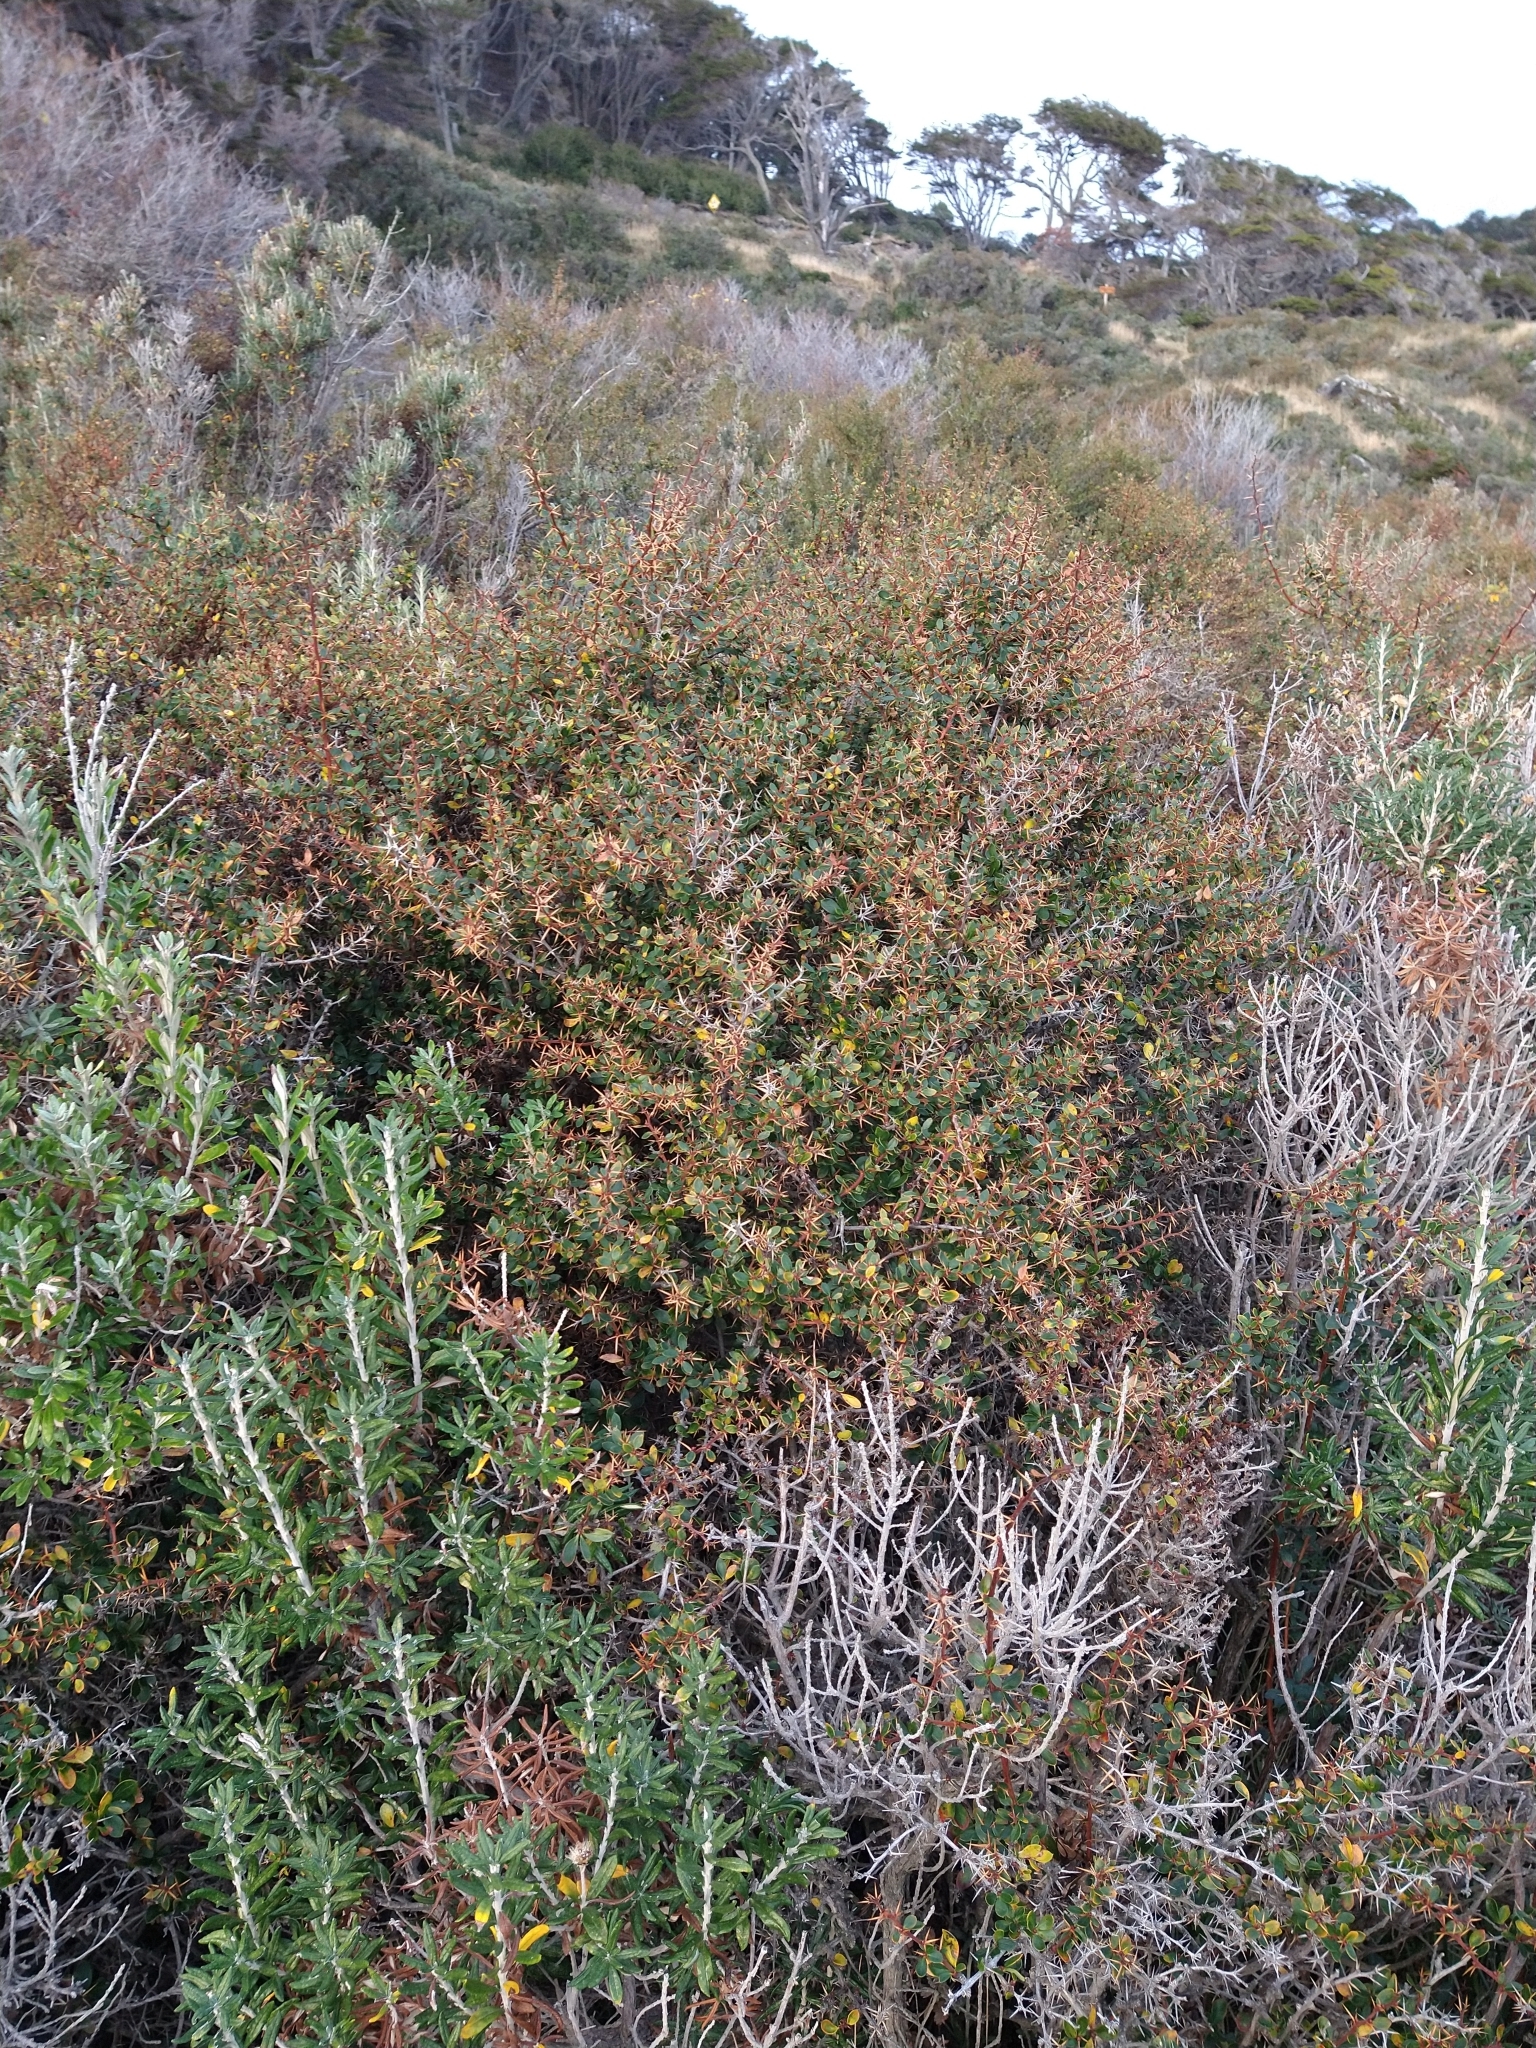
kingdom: Plantae
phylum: Tracheophyta
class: Magnoliopsida
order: Ranunculales
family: Berberidaceae
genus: Berberis
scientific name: Berberis microphylla
